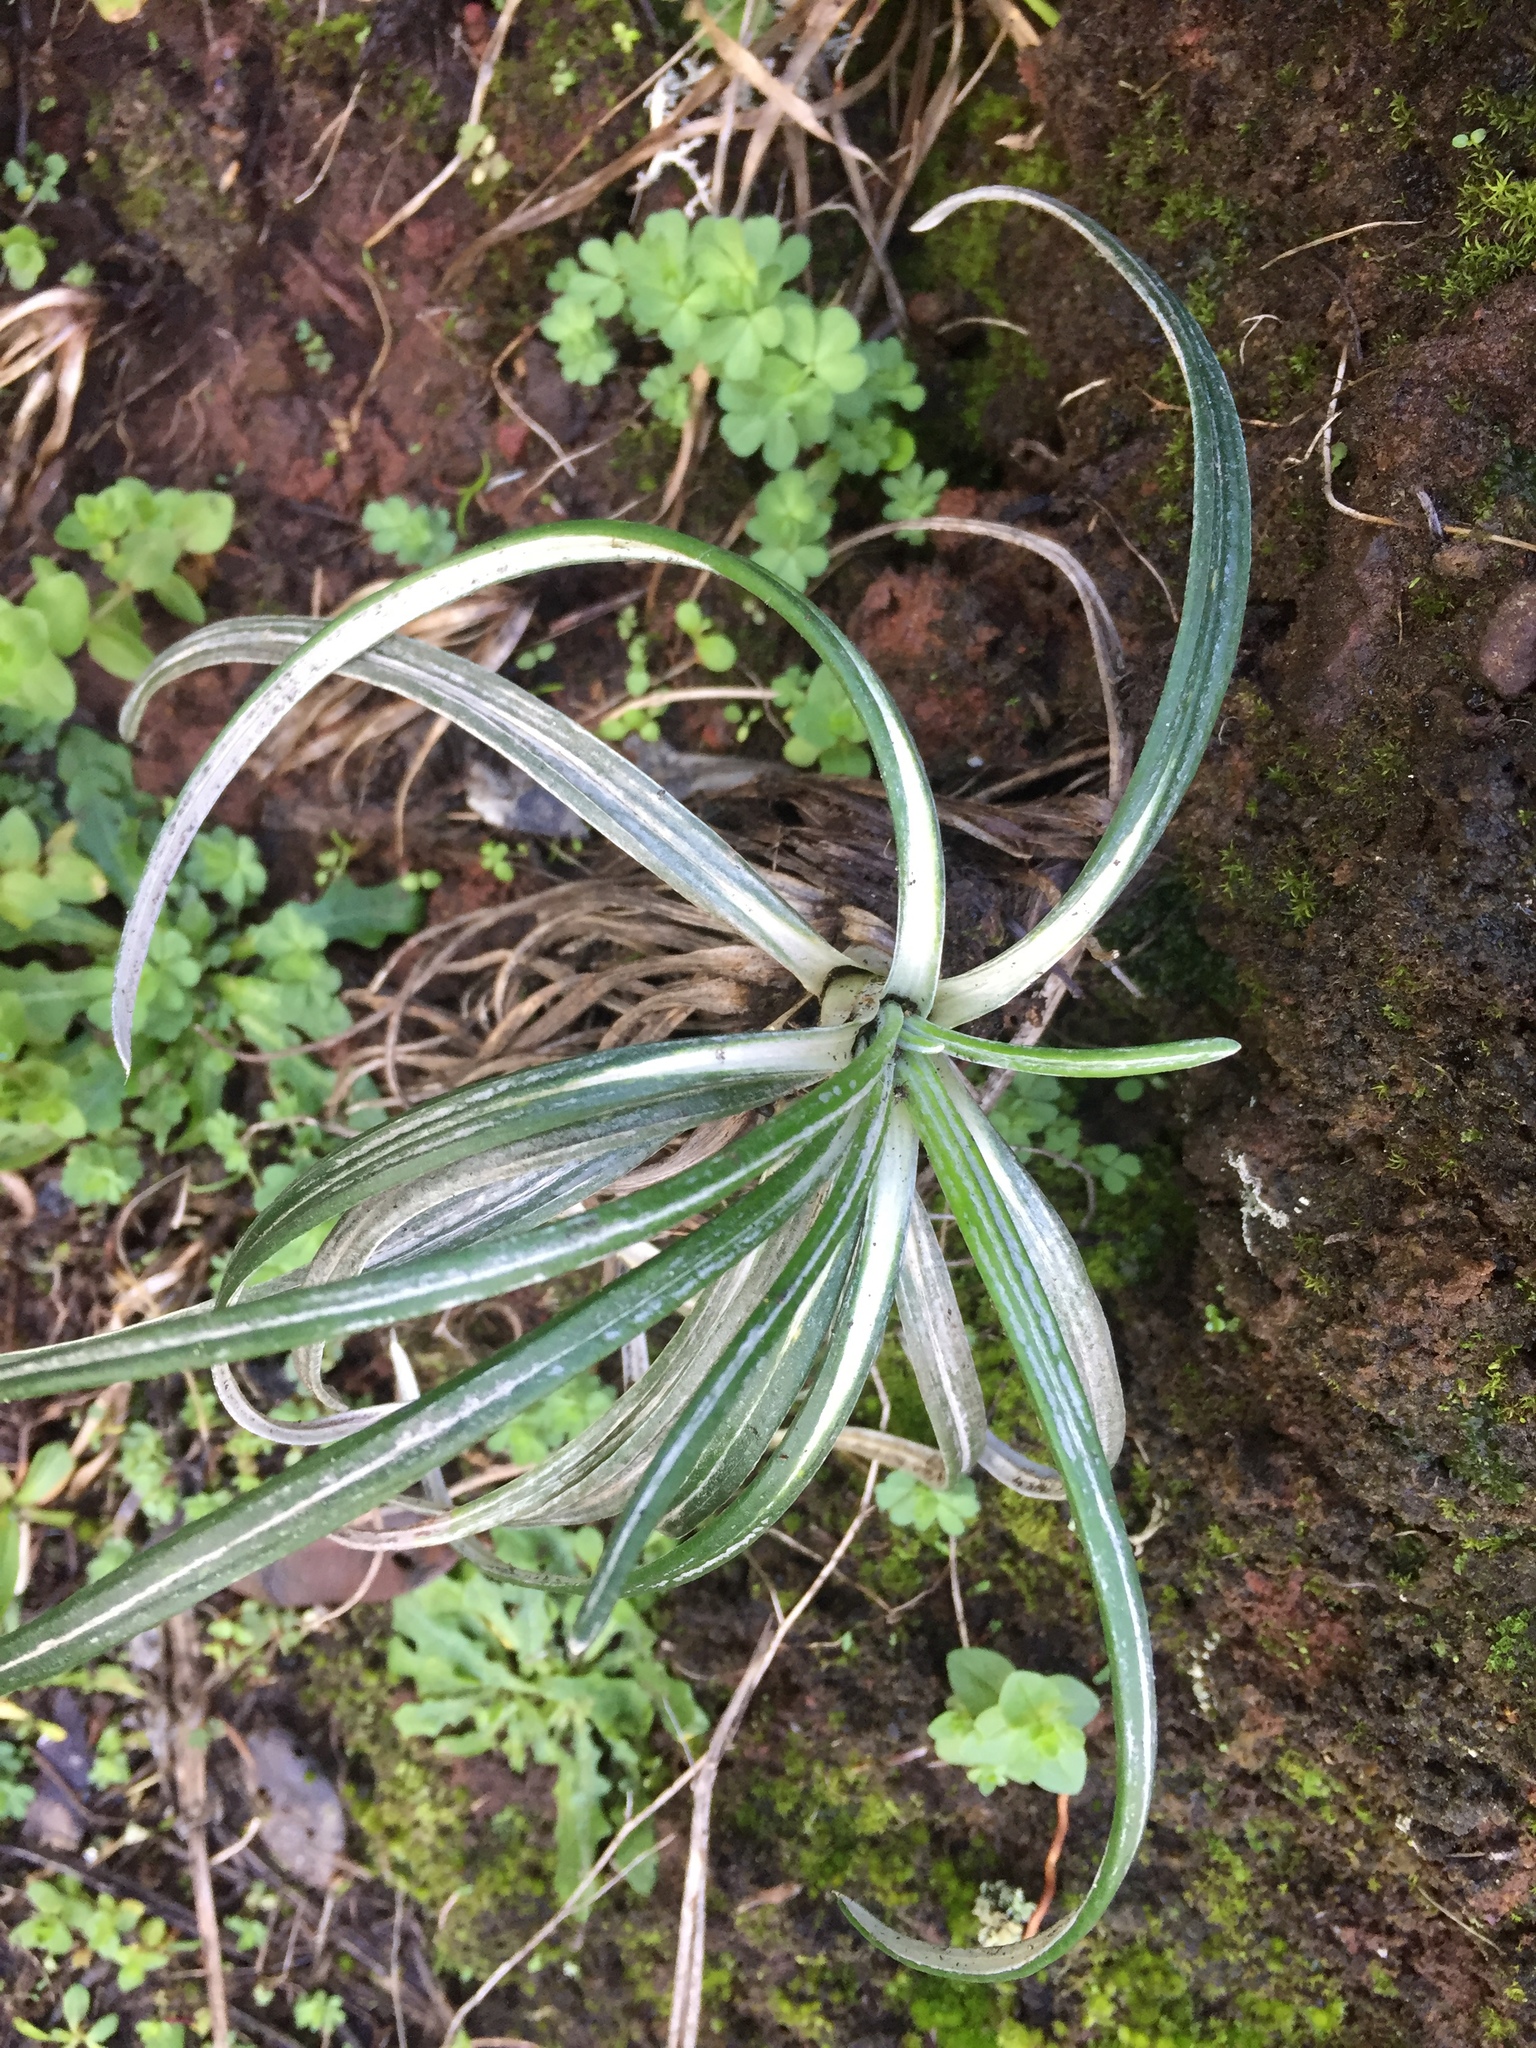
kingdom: Plantae
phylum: Tracheophyta
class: Magnoliopsida
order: Asterales
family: Asteraceae
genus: Celmisia
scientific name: Celmisia major
